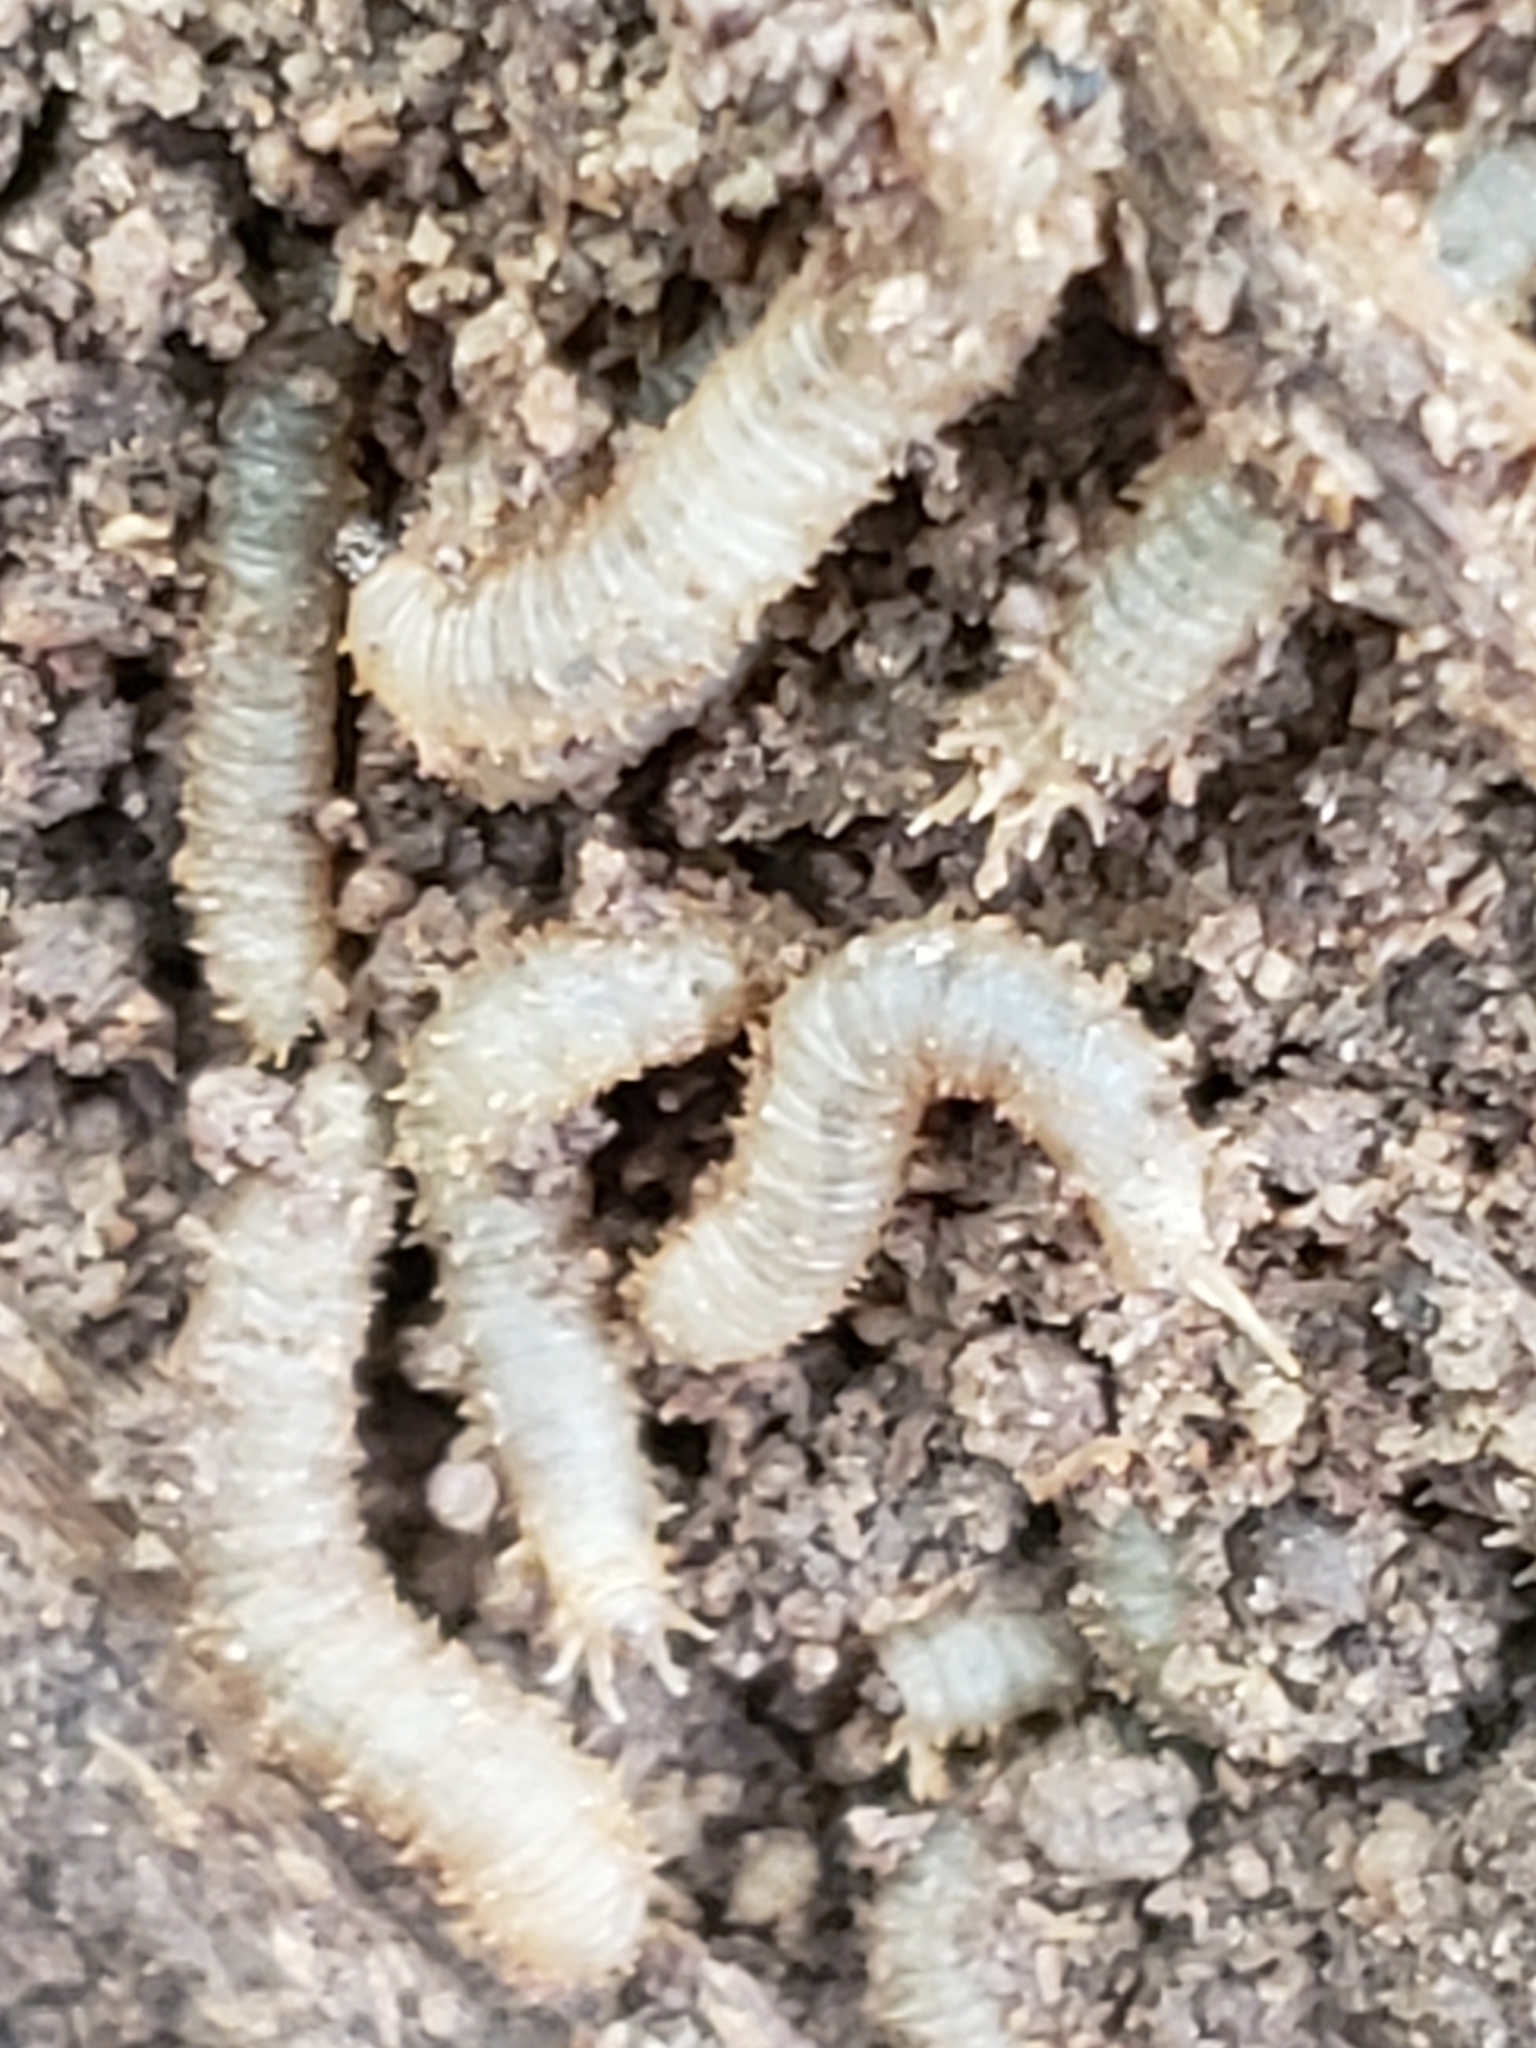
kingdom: Animalia
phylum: Arthropoda
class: Insecta
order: Diptera
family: Bibionidae
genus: Bibio
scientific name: Bibio
